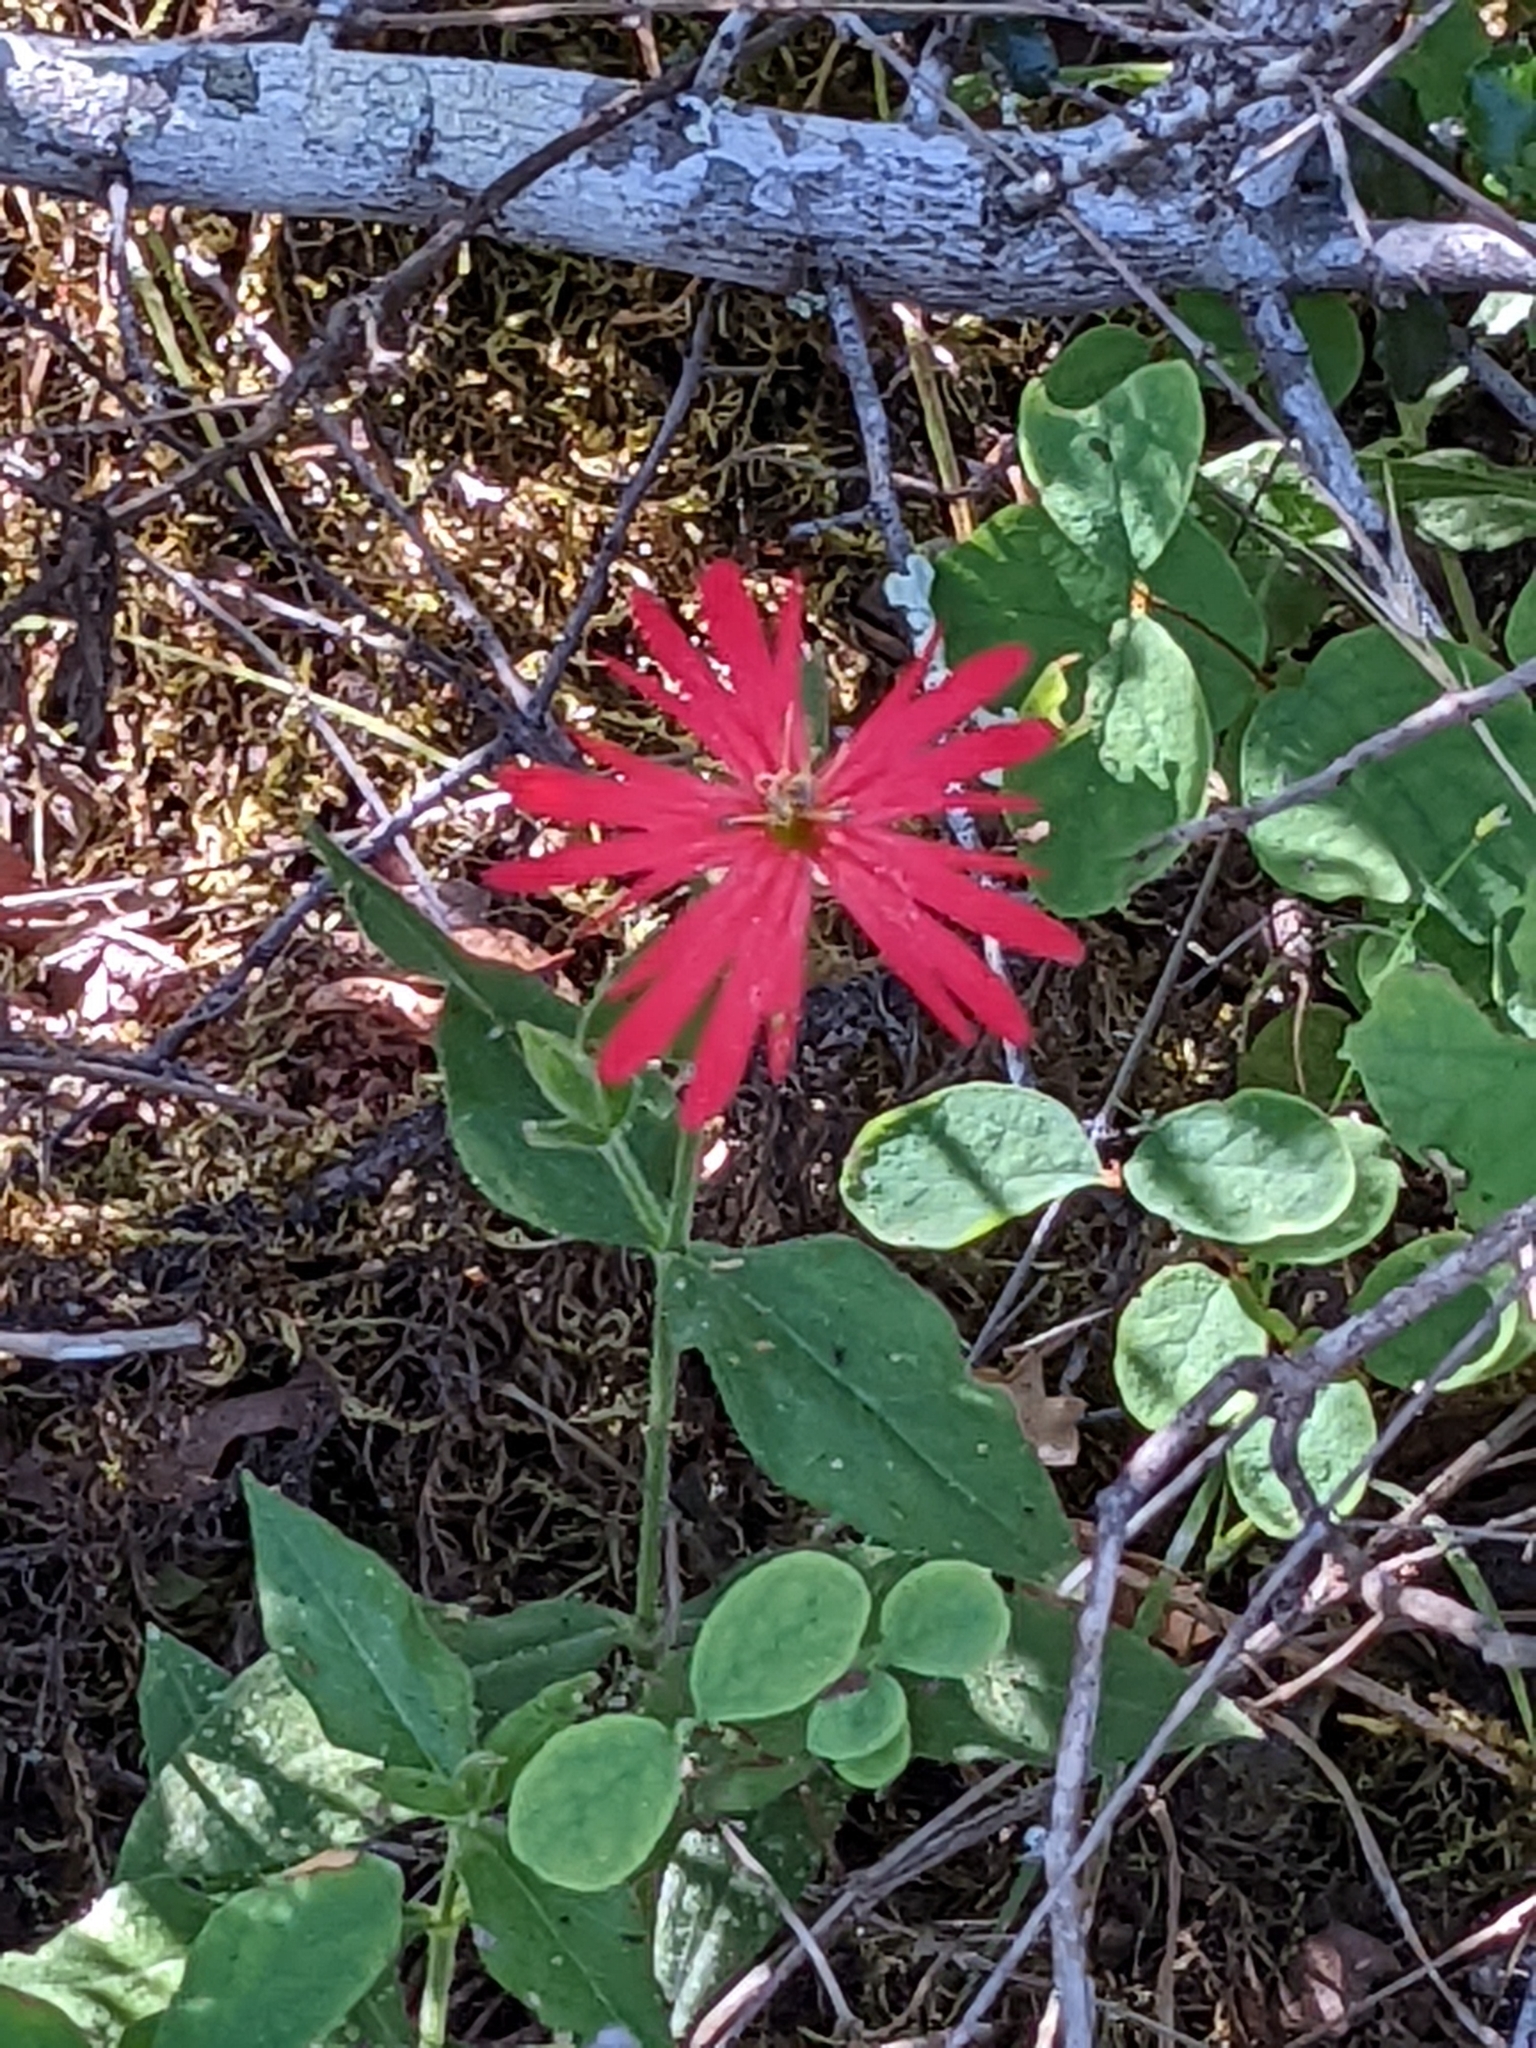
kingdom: Plantae
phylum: Tracheophyta
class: Magnoliopsida
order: Caryophyllales
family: Caryophyllaceae
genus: Silene
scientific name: Silene laciniata
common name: Indian-pink
